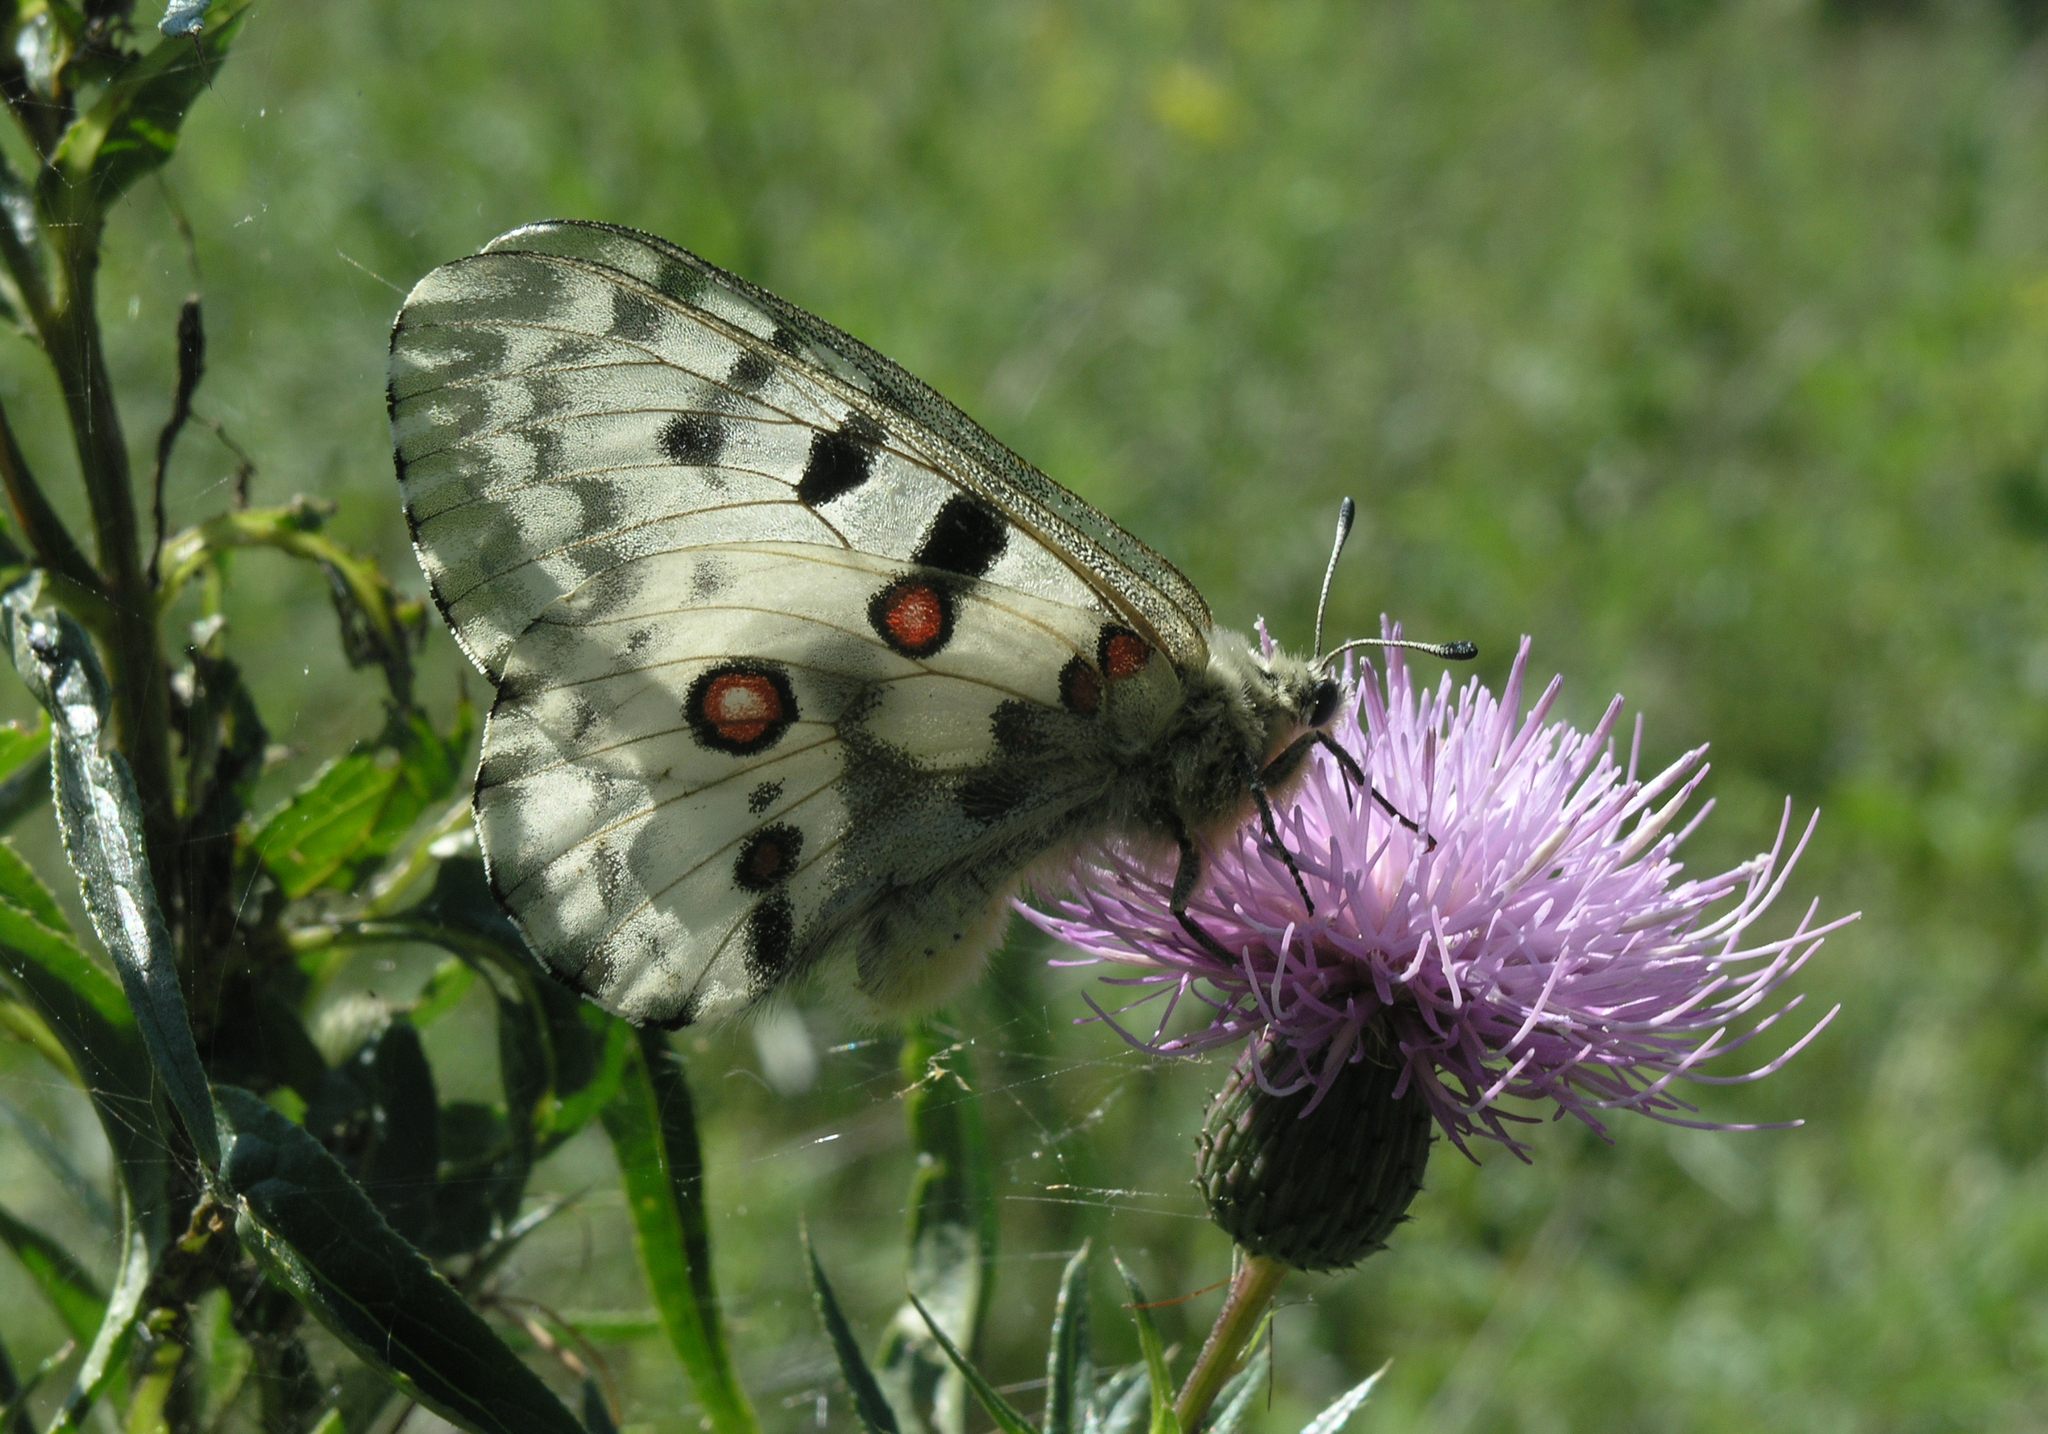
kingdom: Animalia
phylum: Arthropoda
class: Insecta
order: Lepidoptera
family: Papilionidae
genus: Parnassius
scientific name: Parnassius nomion
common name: Nomion apollo
